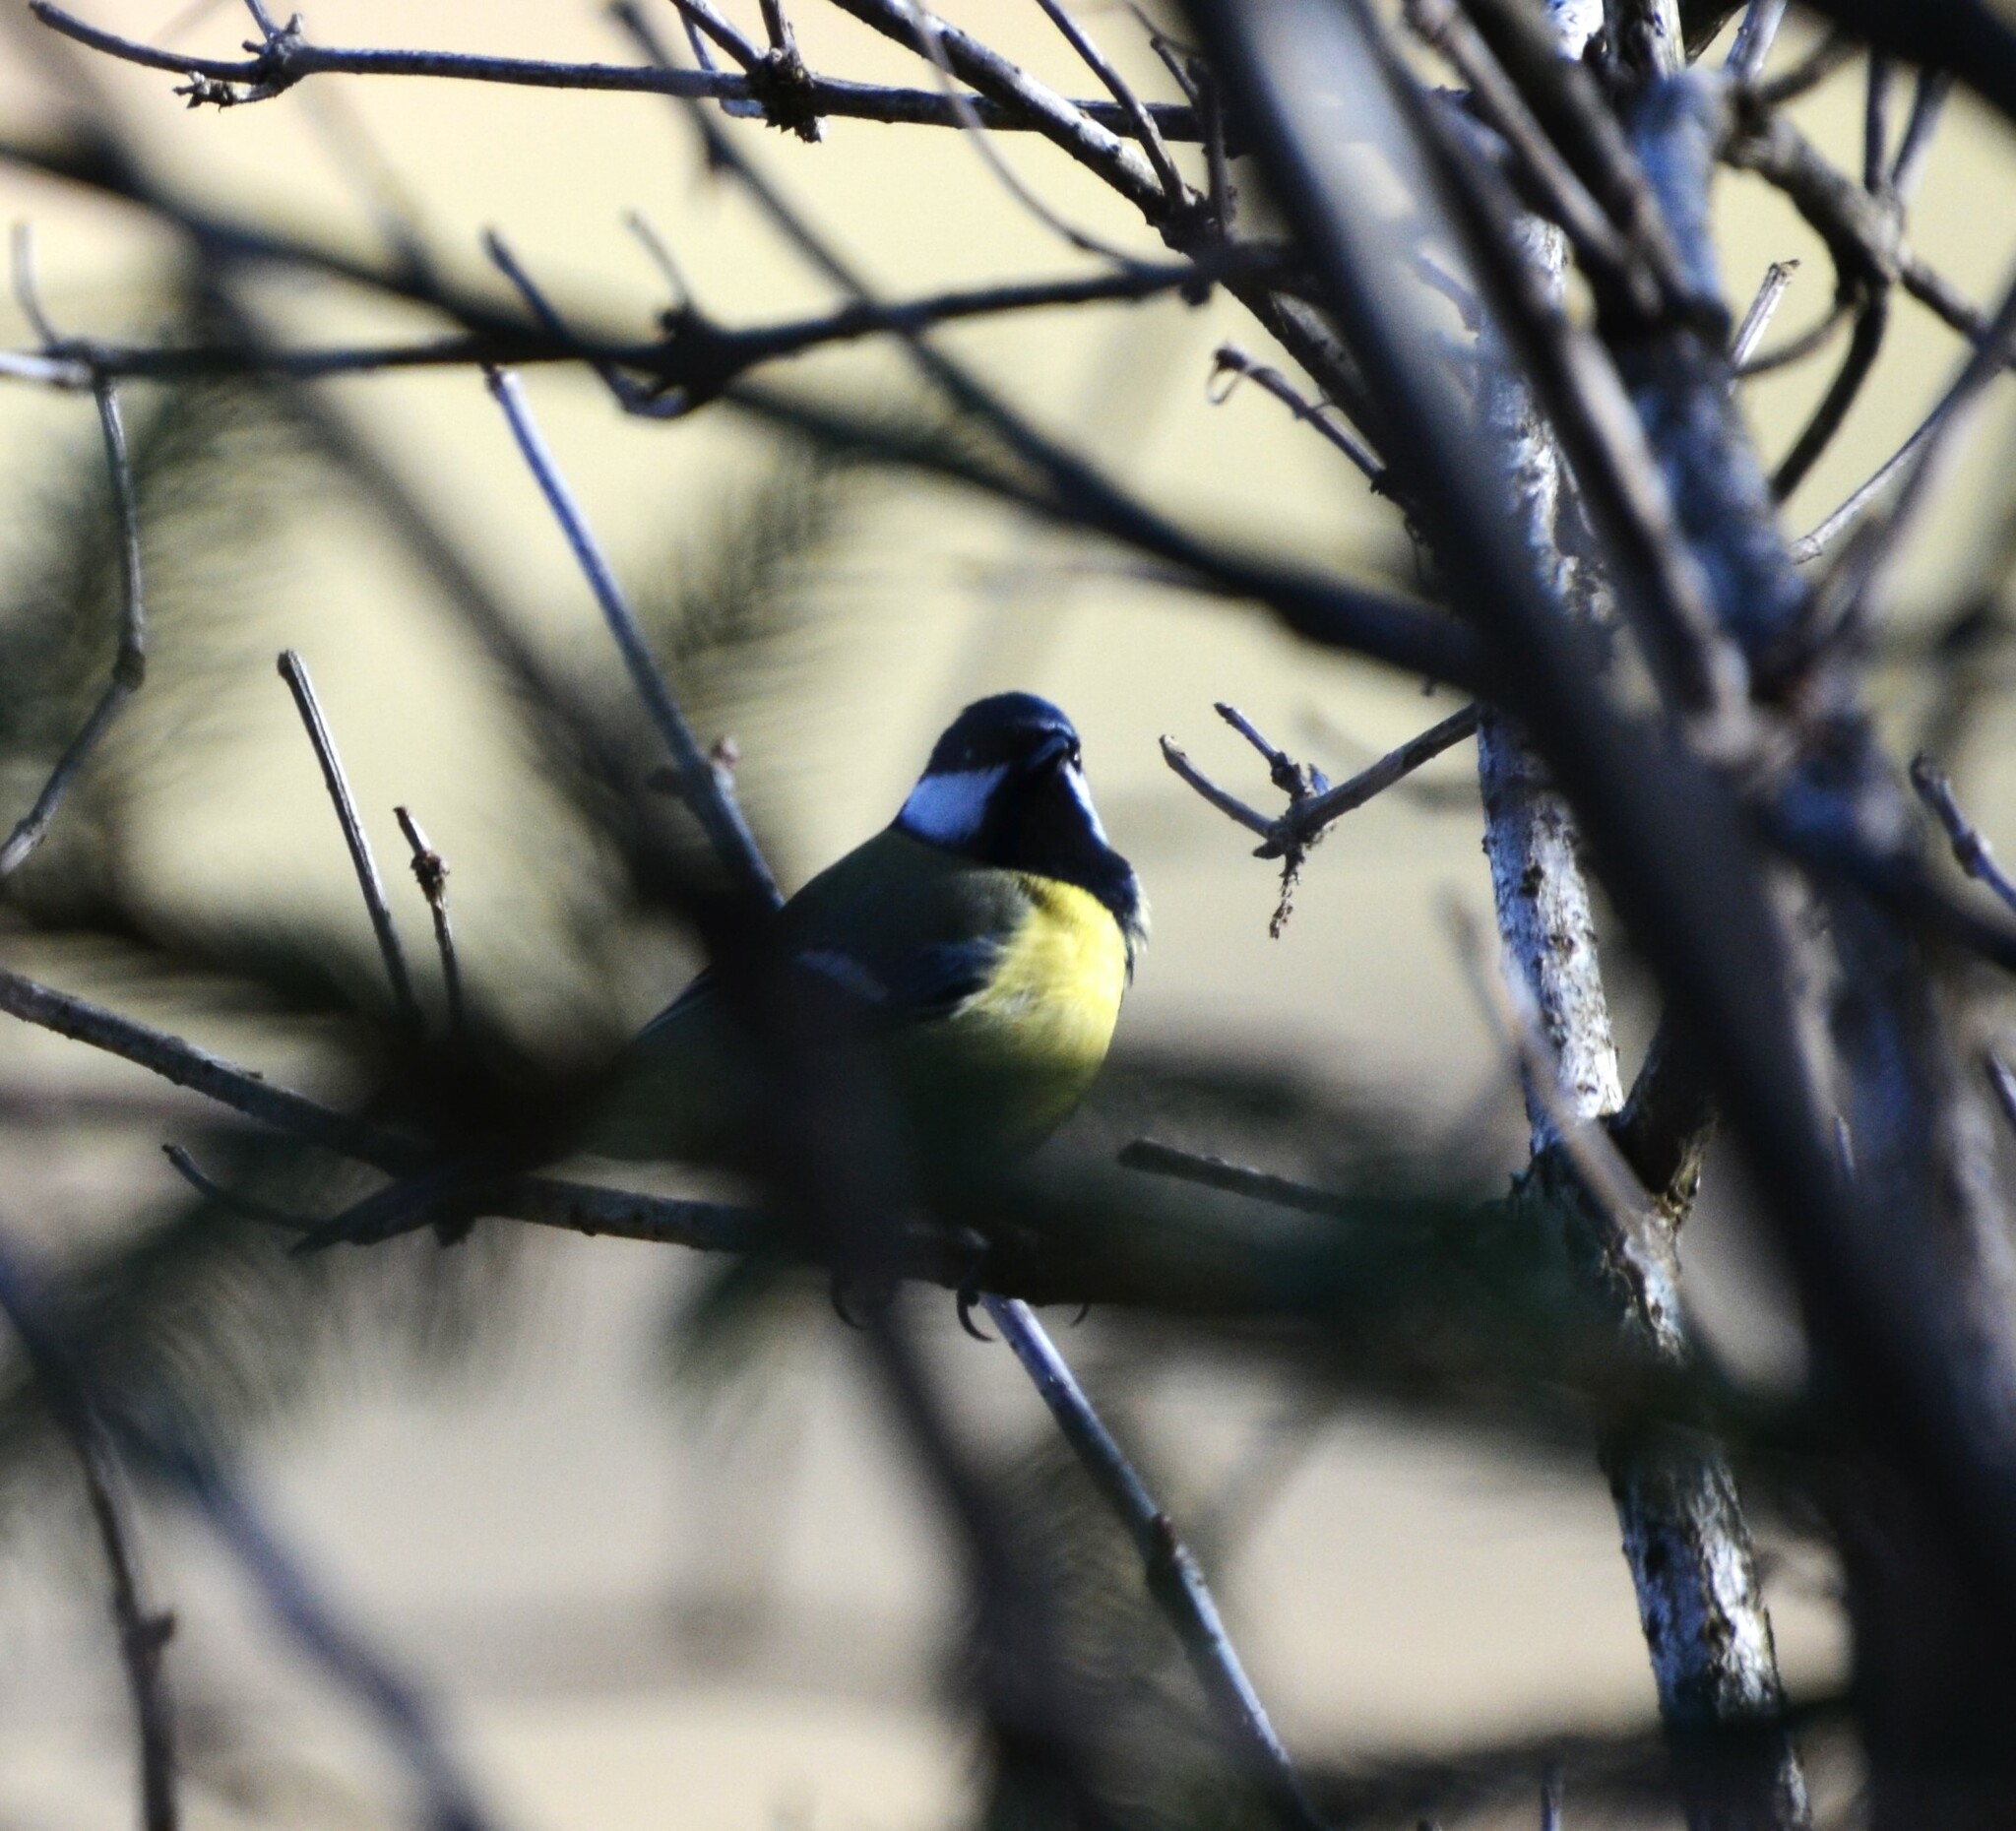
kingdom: Animalia
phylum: Chordata
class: Aves
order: Passeriformes
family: Paridae
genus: Parus
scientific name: Parus major
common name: Great tit
